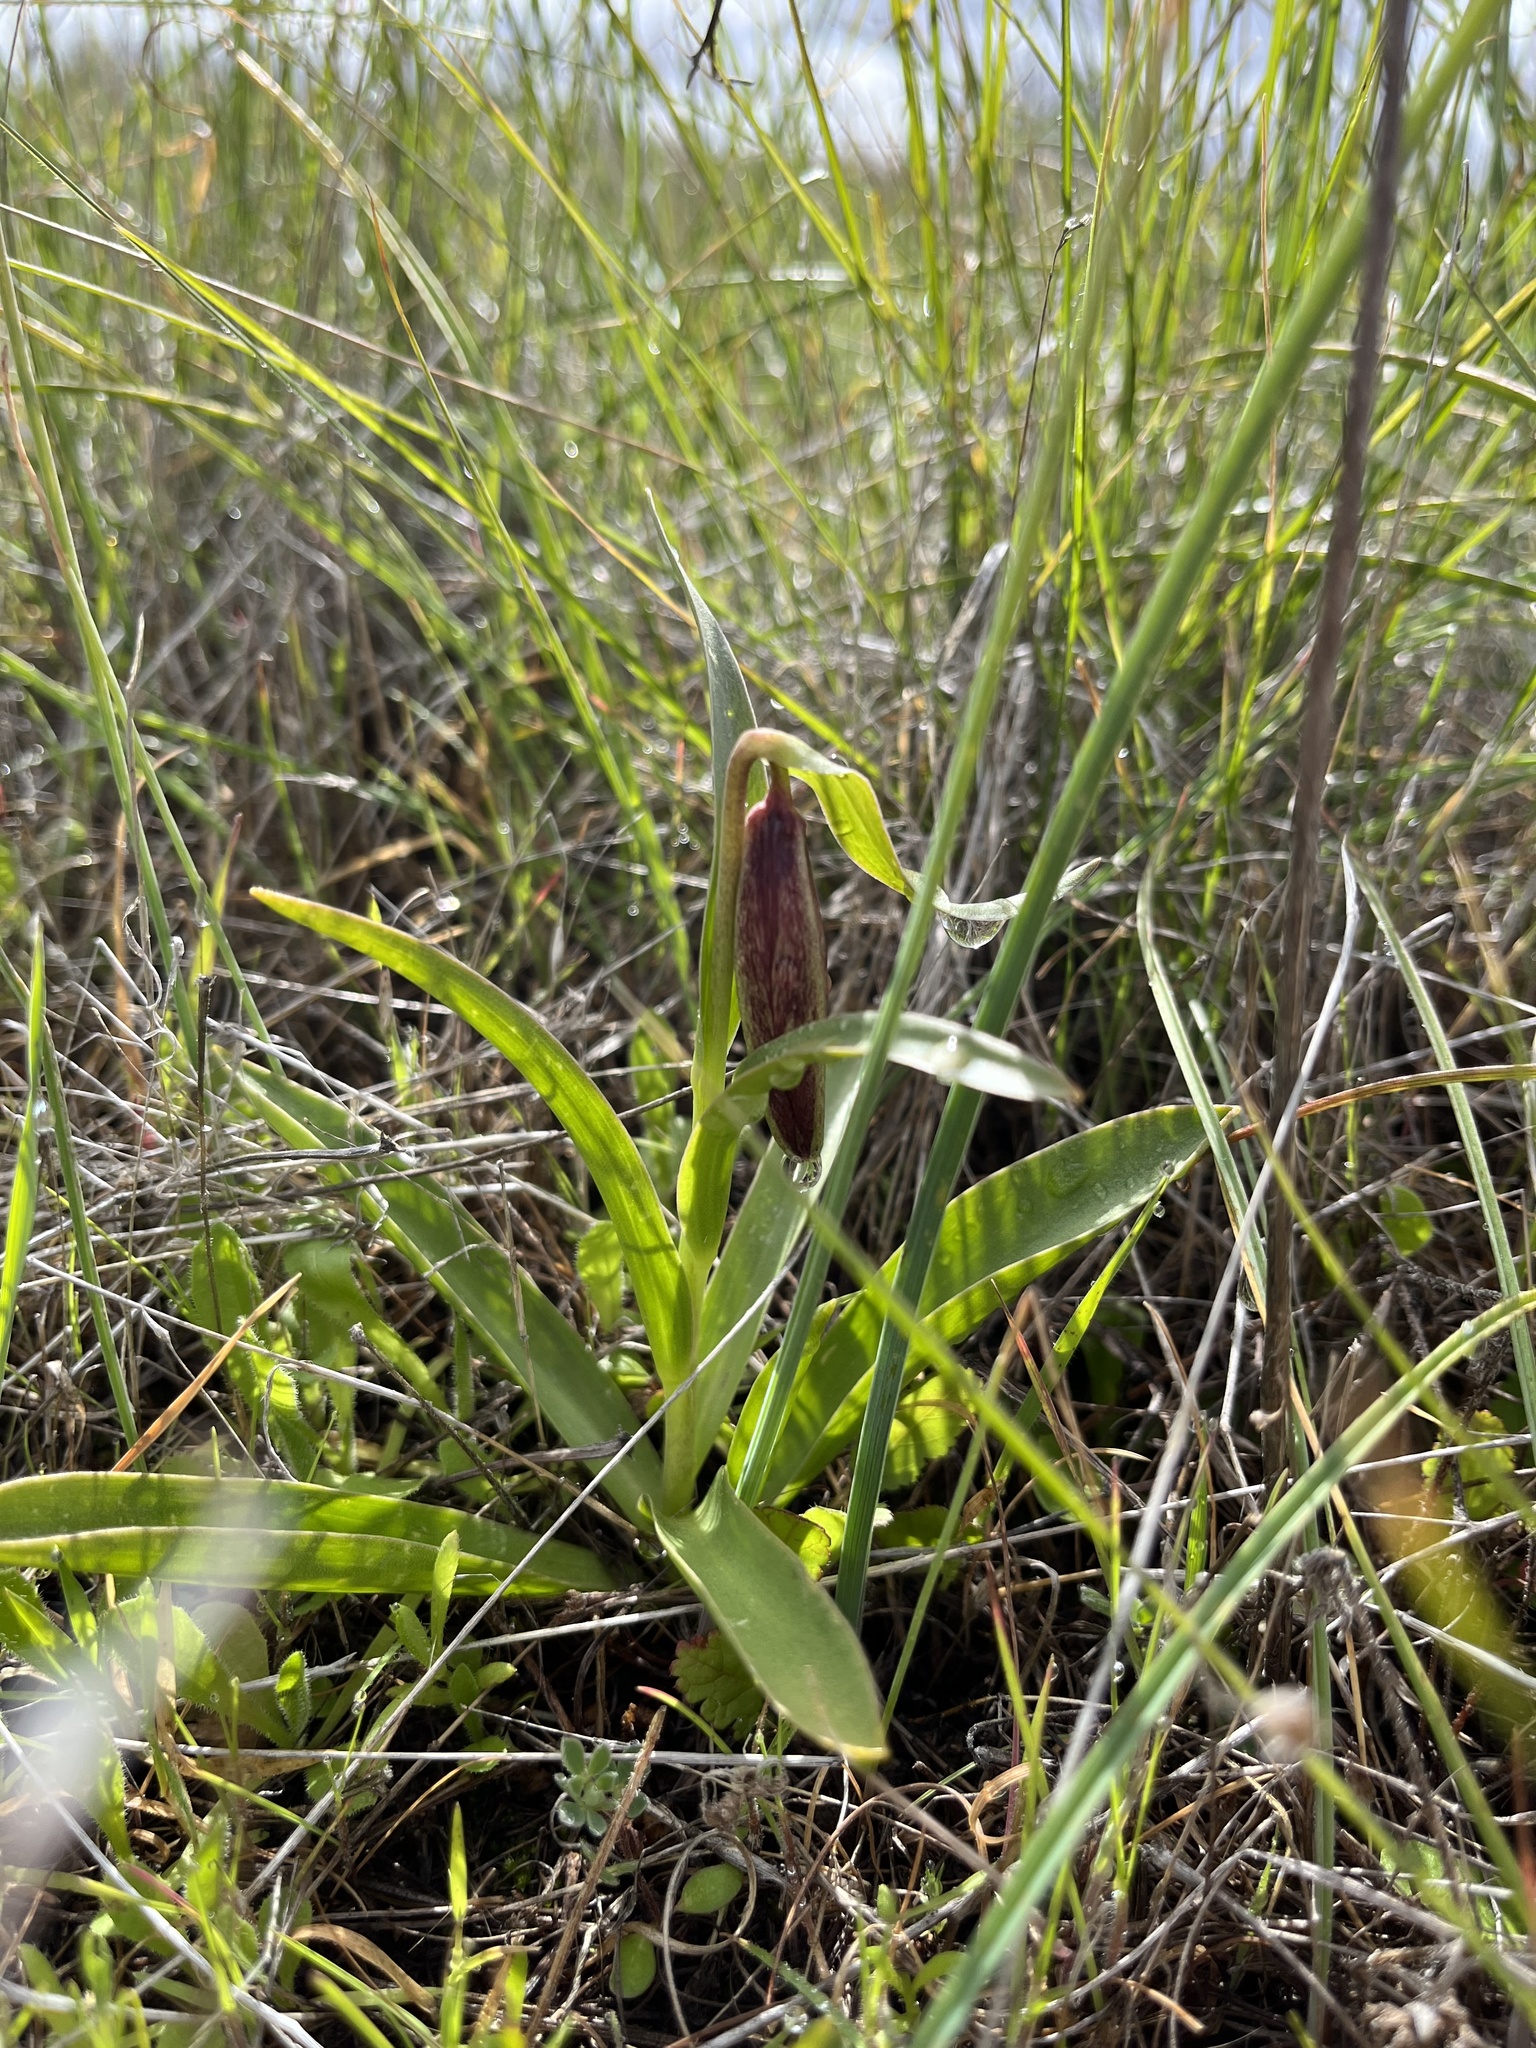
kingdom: Plantae
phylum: Tracheophyta
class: Liliopsida
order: Liliales
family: Liliaceae
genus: Fritillaria
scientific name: Fritillaria biflora
